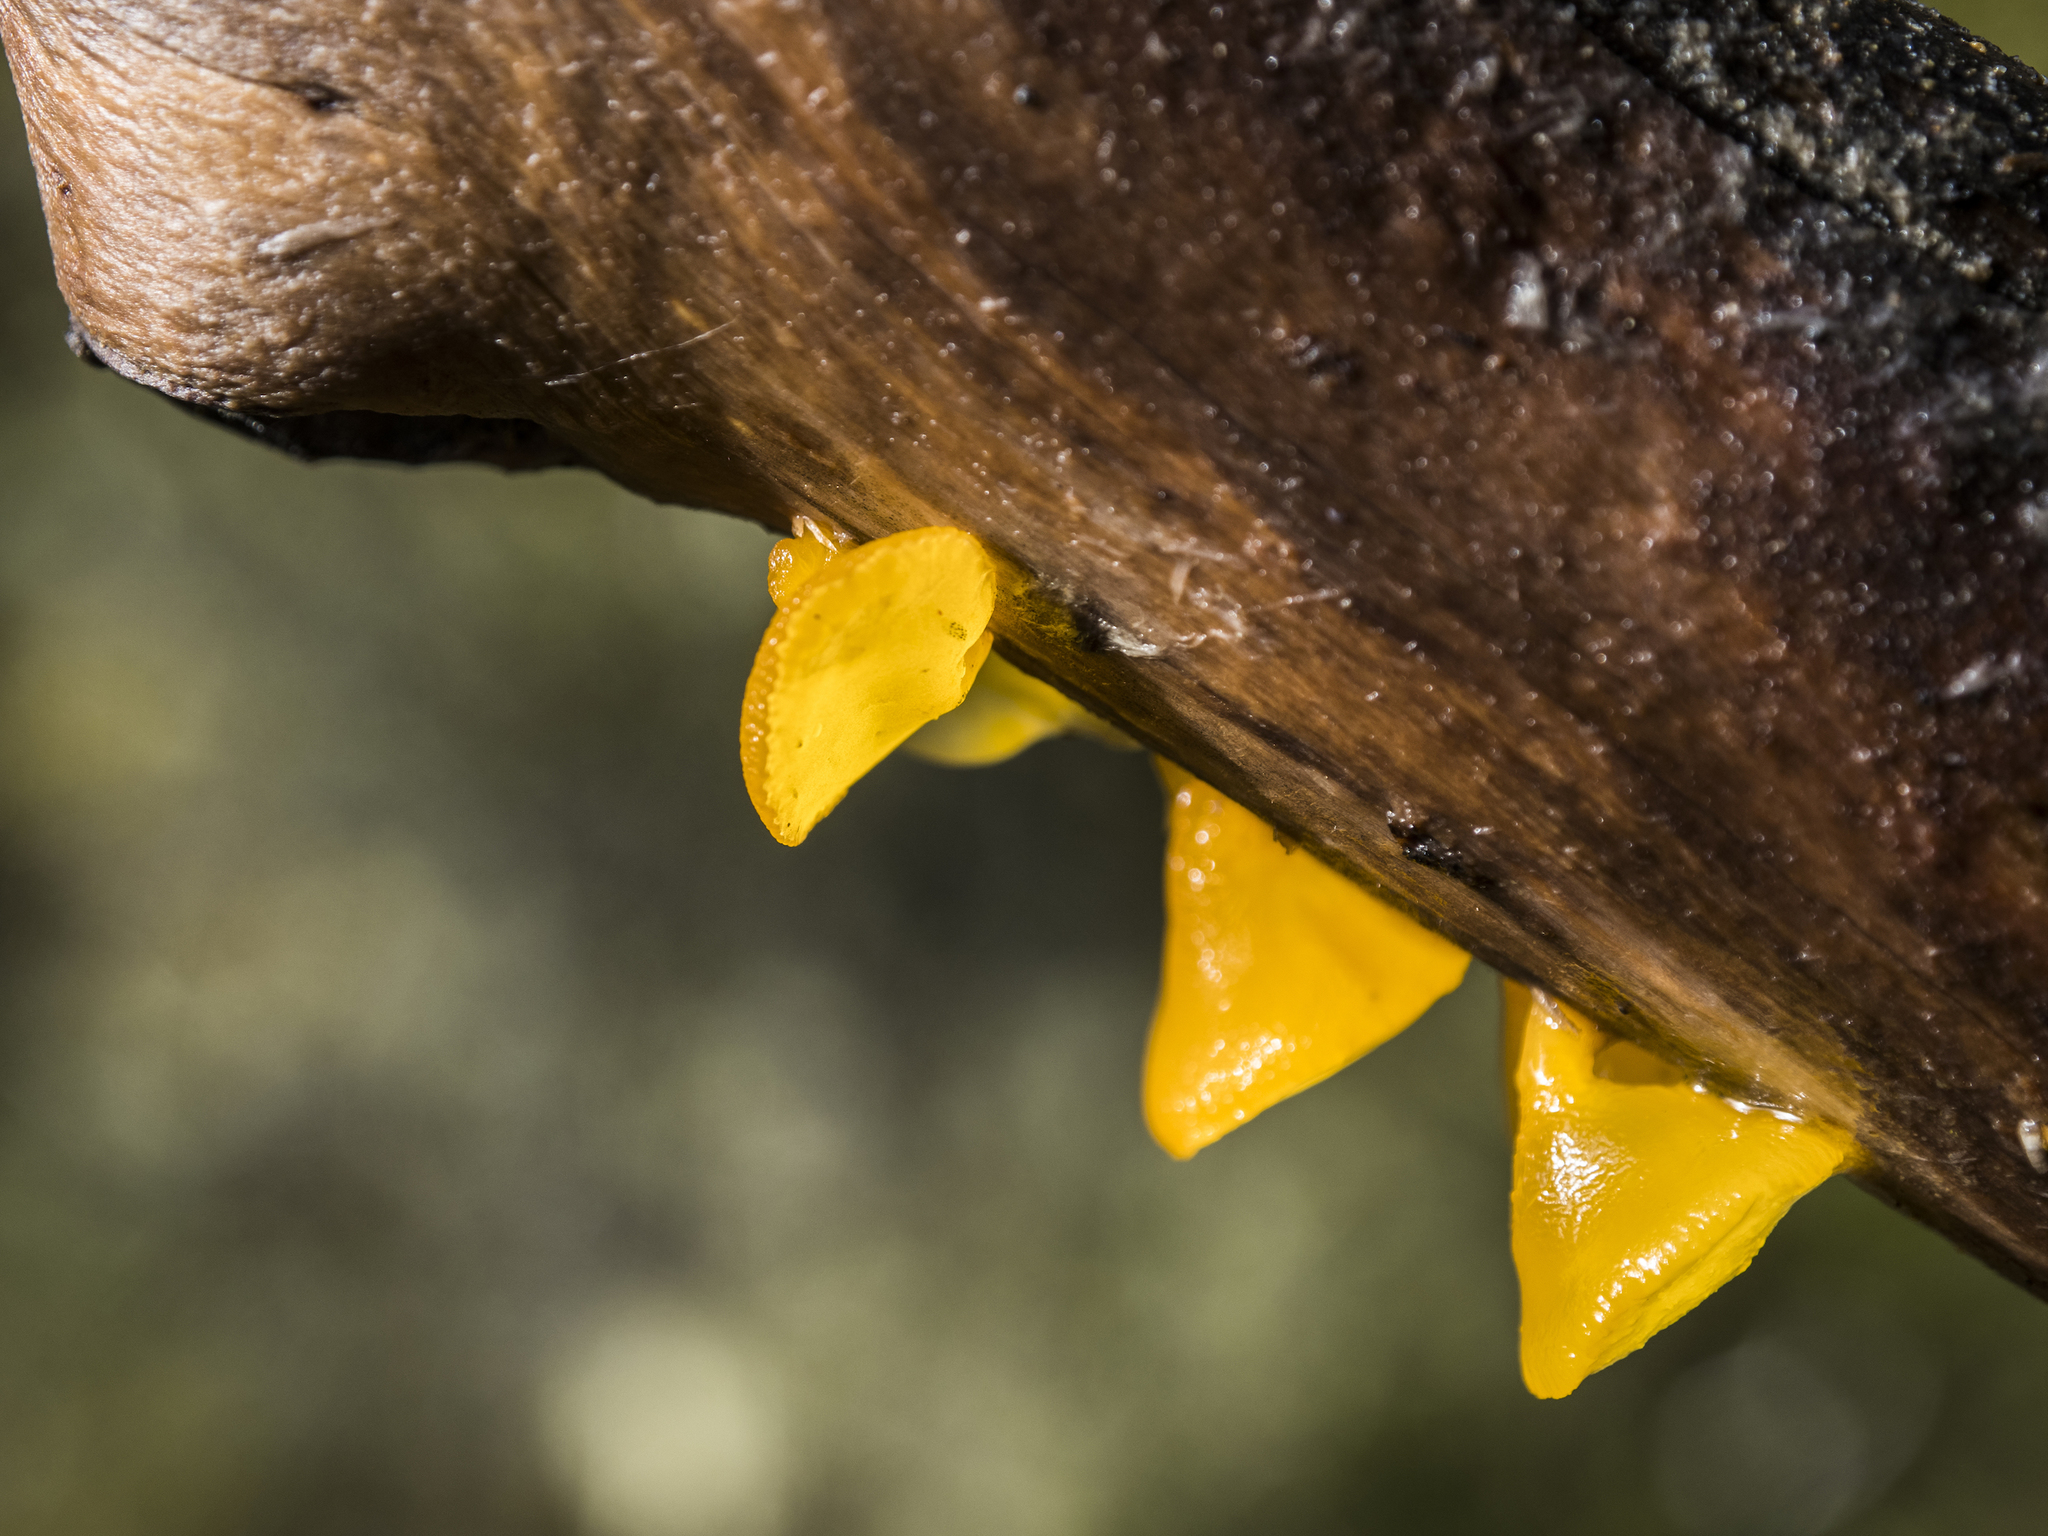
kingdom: Fungi
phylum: Basidiomycota
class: Dacrymycetes
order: Dacrymycetales
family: Dacrymycetaceae
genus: Heterotextus
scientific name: Heterotextus miltinus
